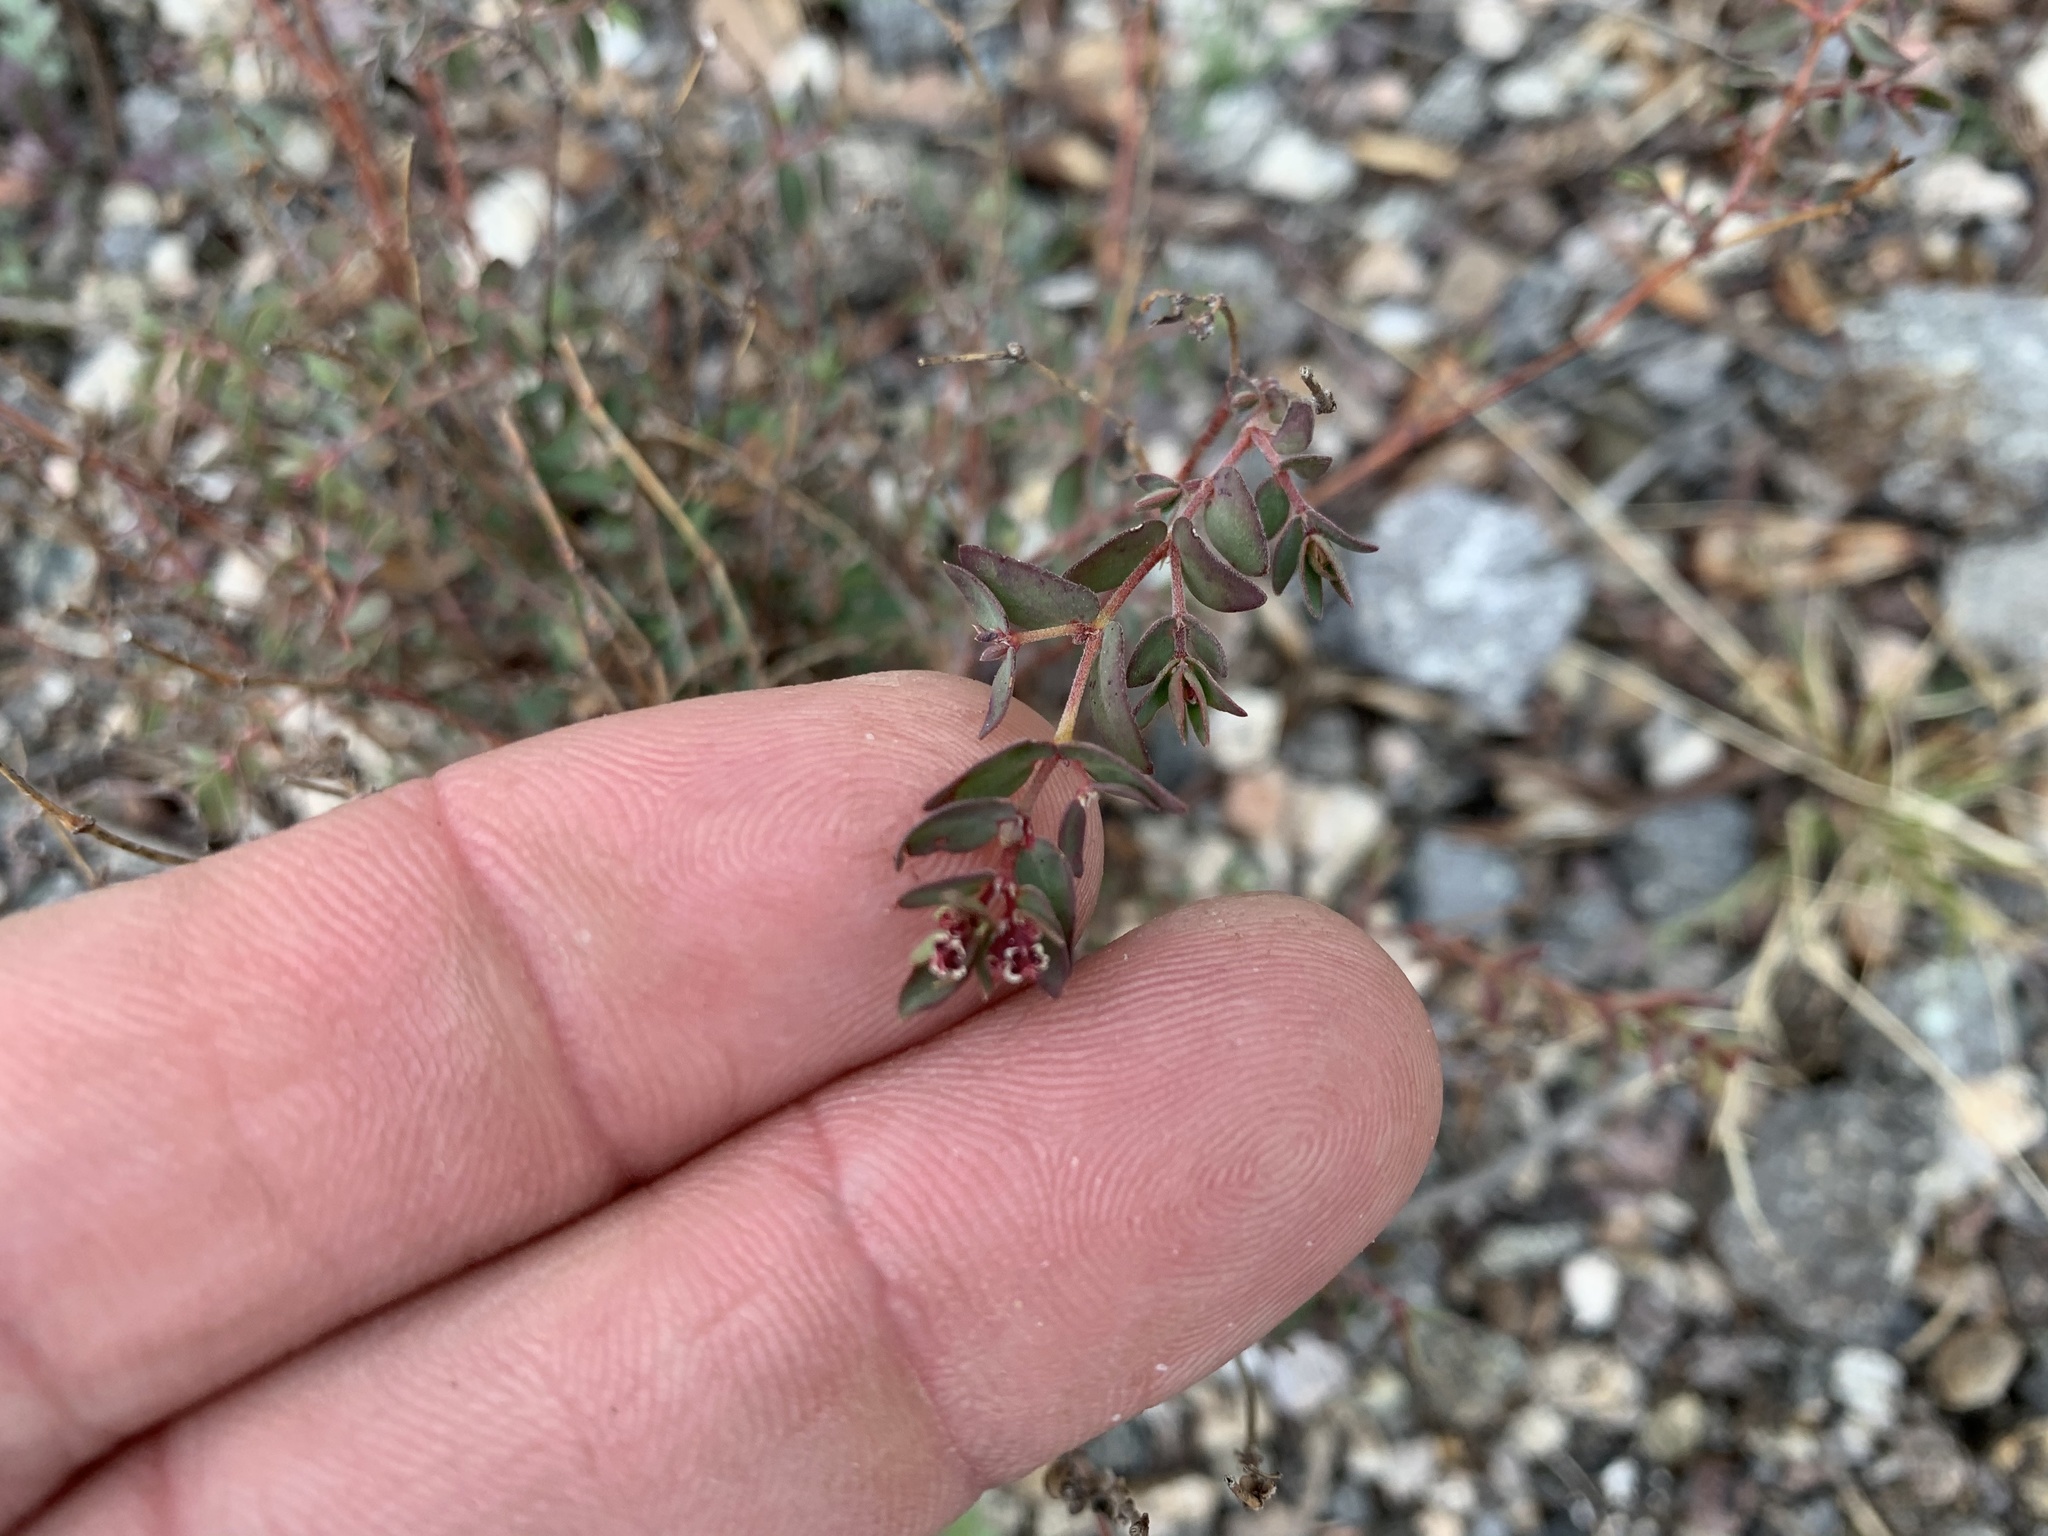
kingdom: Plantae
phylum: Tracheophyta
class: Magnoliopsida
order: Malpighiales
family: Euphorbiaceae
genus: Euphorbia
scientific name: Euphorbia capitellata
